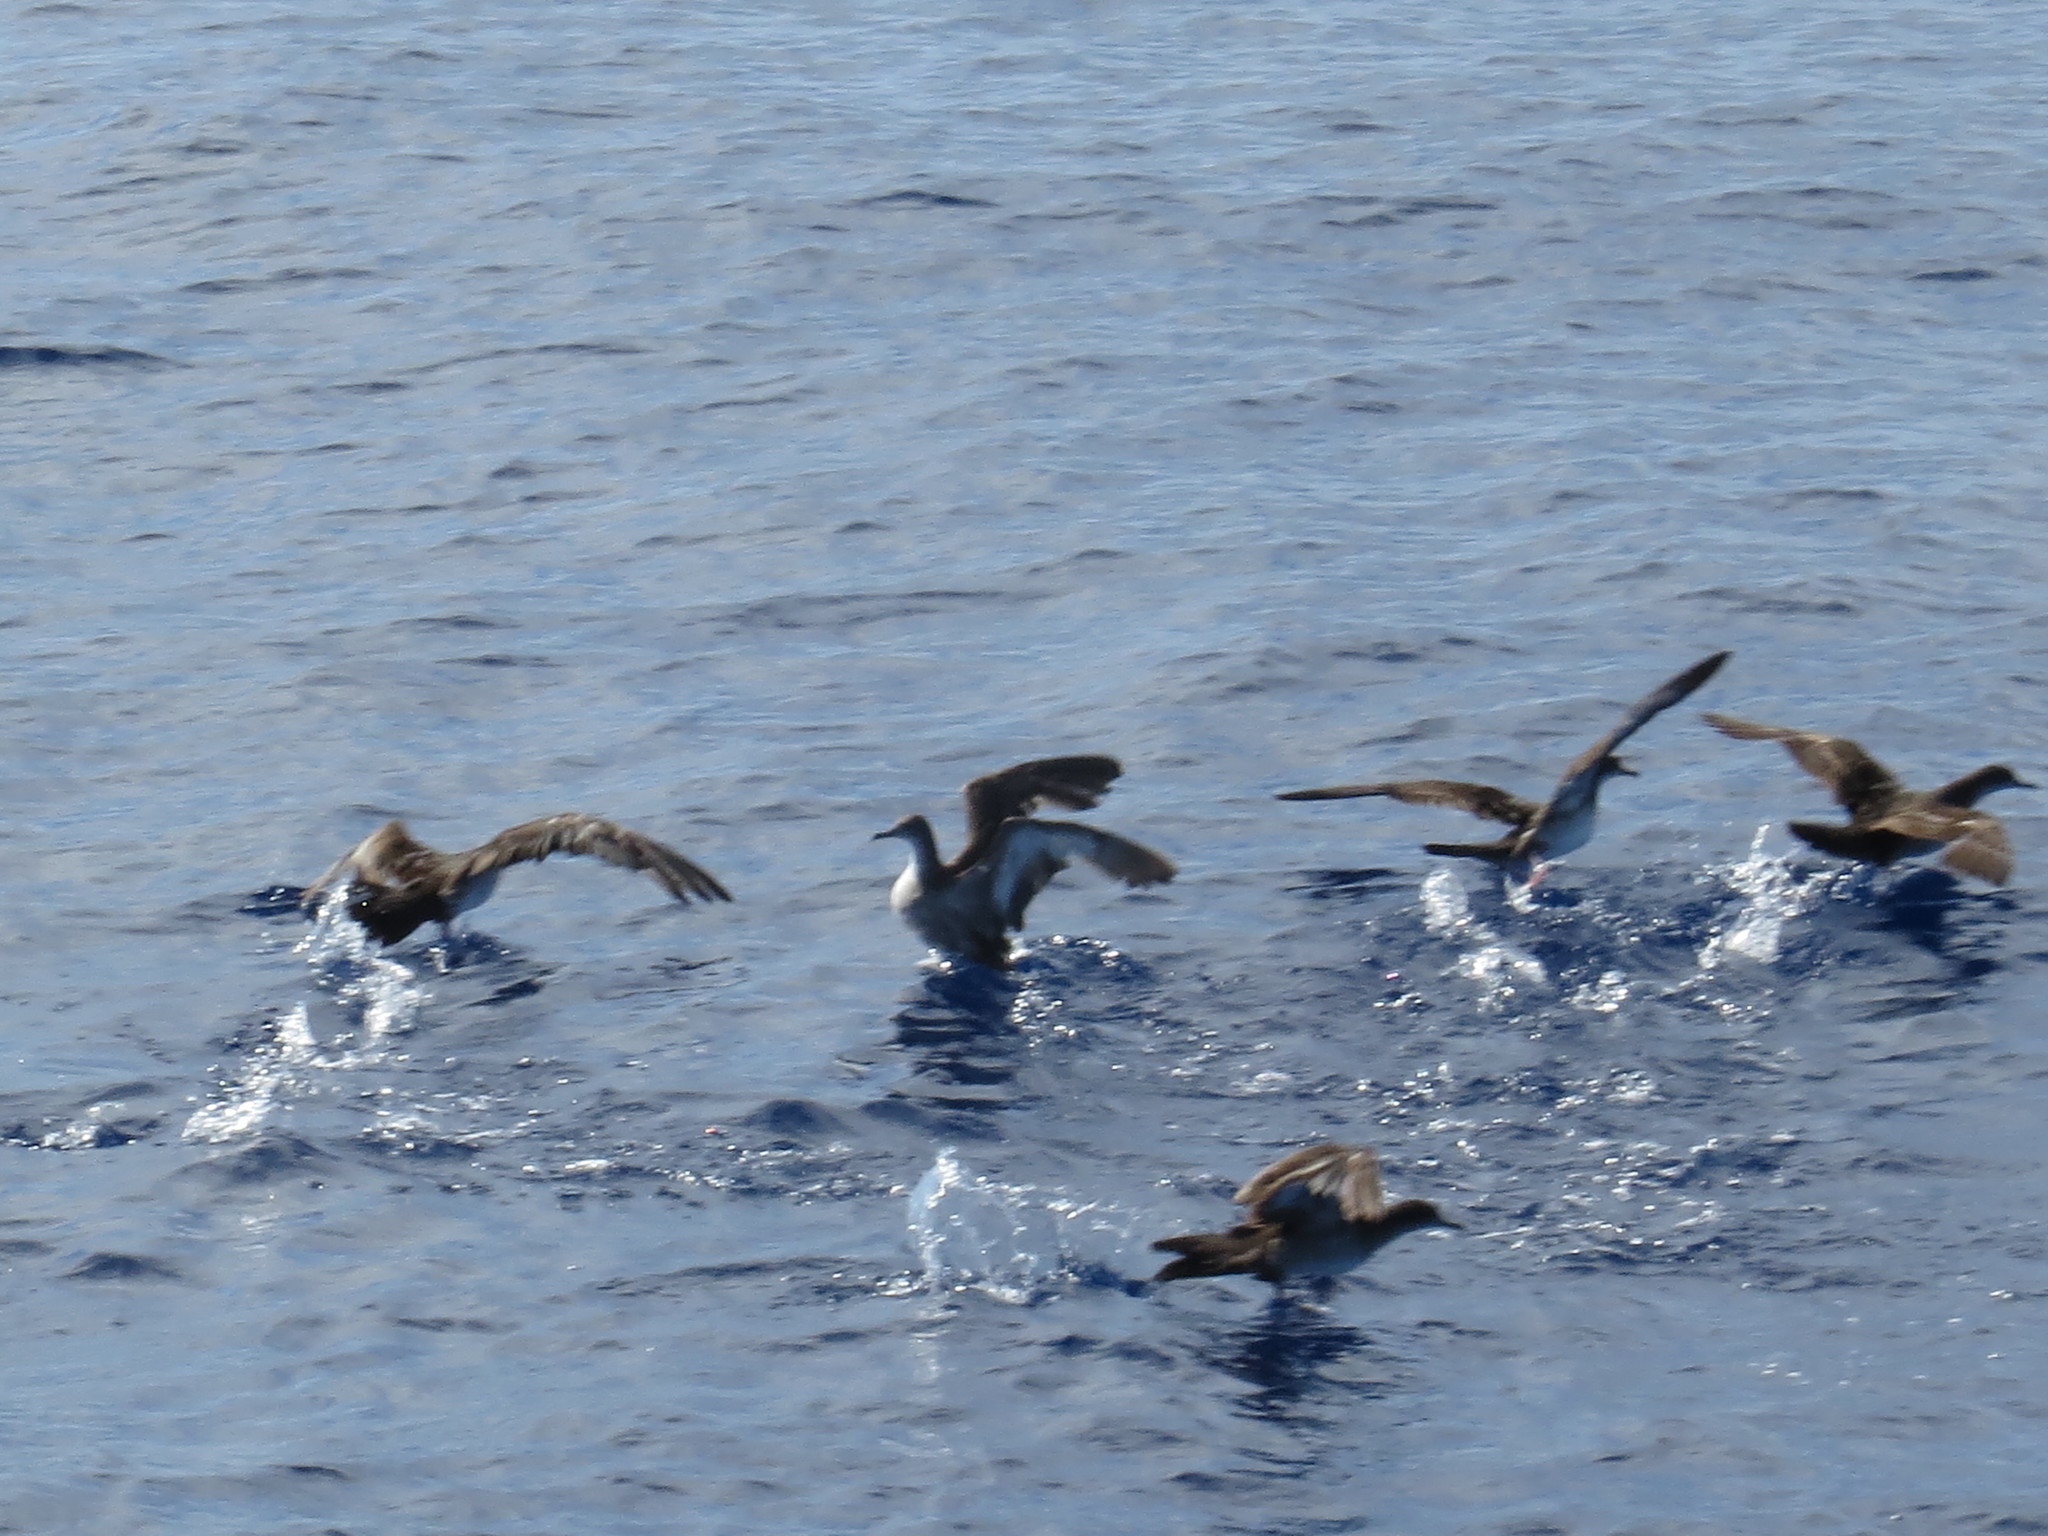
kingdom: Animalia
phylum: Chordata
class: Aves
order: Procellariiformes
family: Procellariidae
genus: Puffinus
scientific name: Puffinus pacificus
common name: Wedge-tailed shearwater
